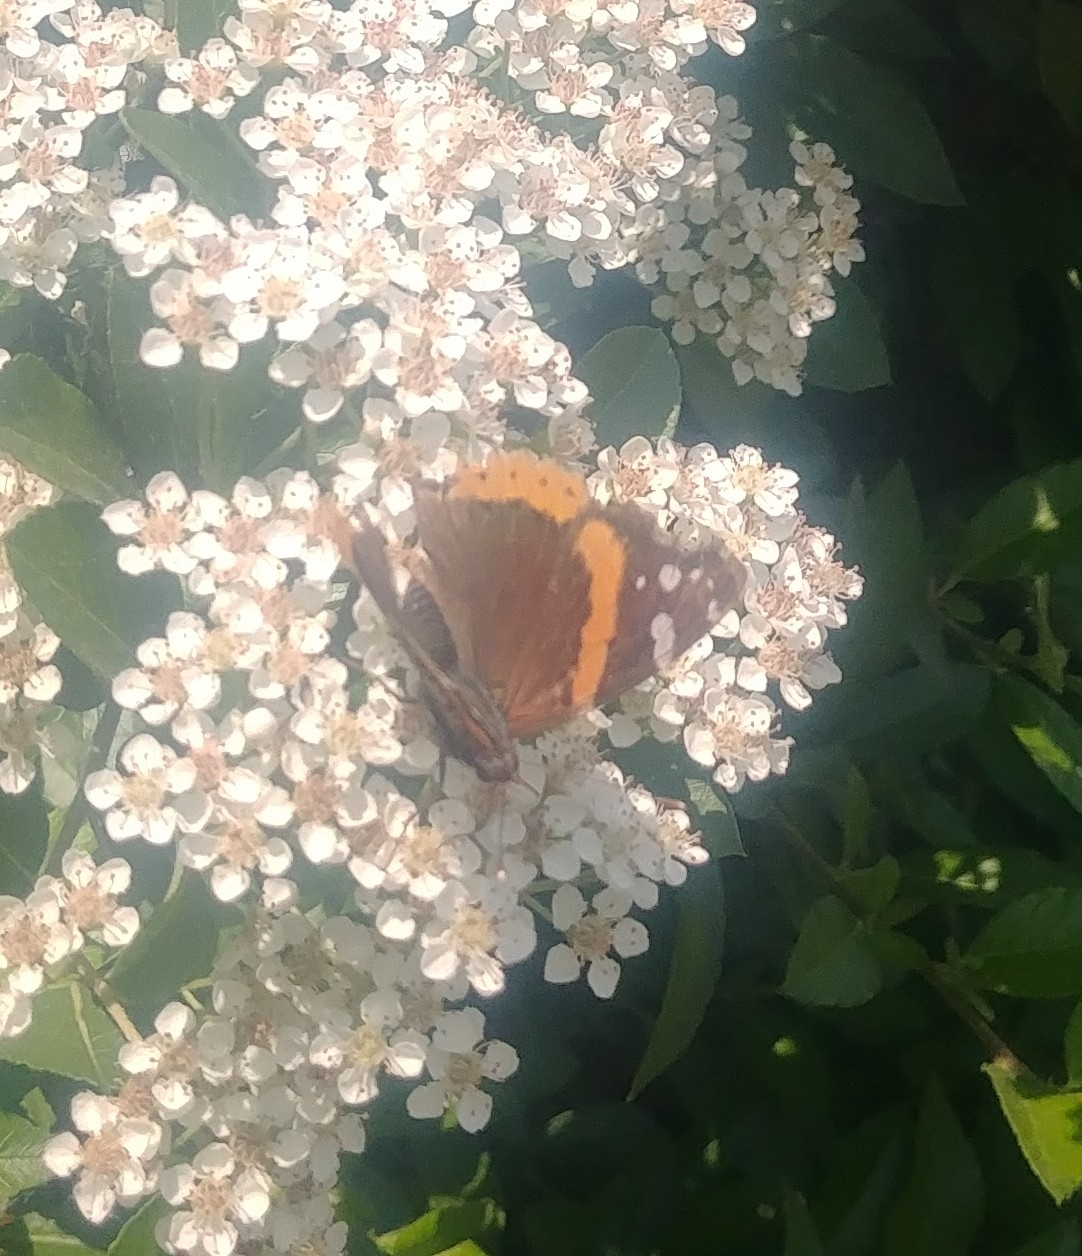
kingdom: Animalia
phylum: Arthropoda
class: Insecta
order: Lepidoptera
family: Nymphalidae
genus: Vanessa
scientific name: Vanessa atalanta
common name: Red admiral
